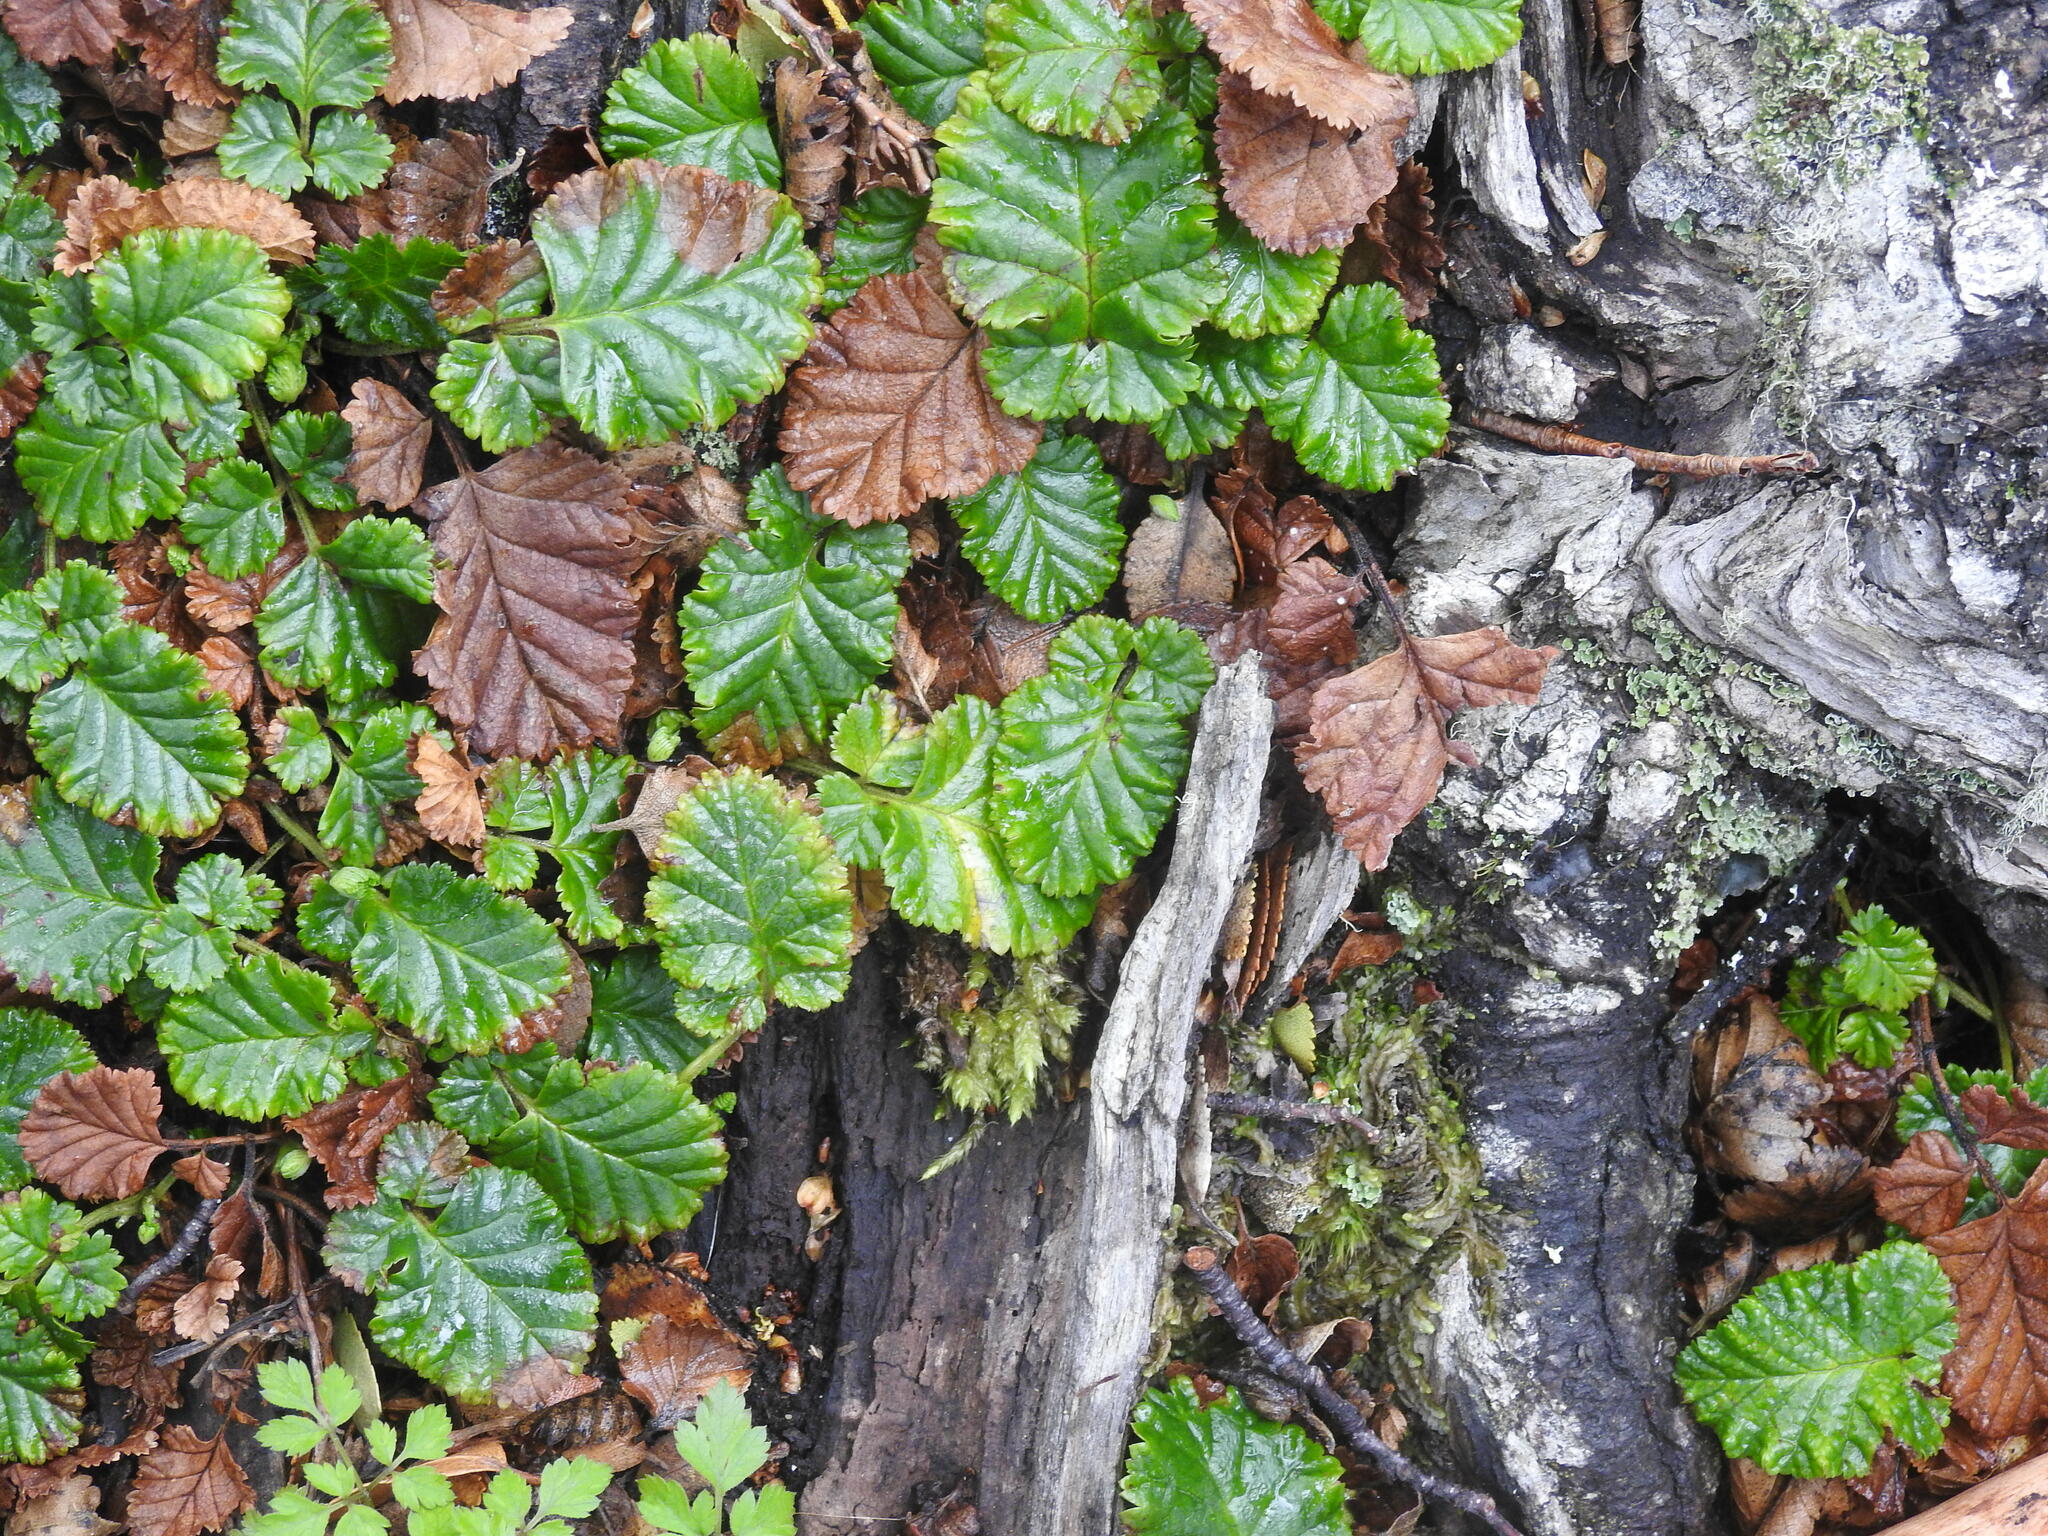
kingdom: Plantae
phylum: Tracheophyta
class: Magnoliopsida
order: Rosales
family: Rosaceae
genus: Rubus
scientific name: Rubus geoides
